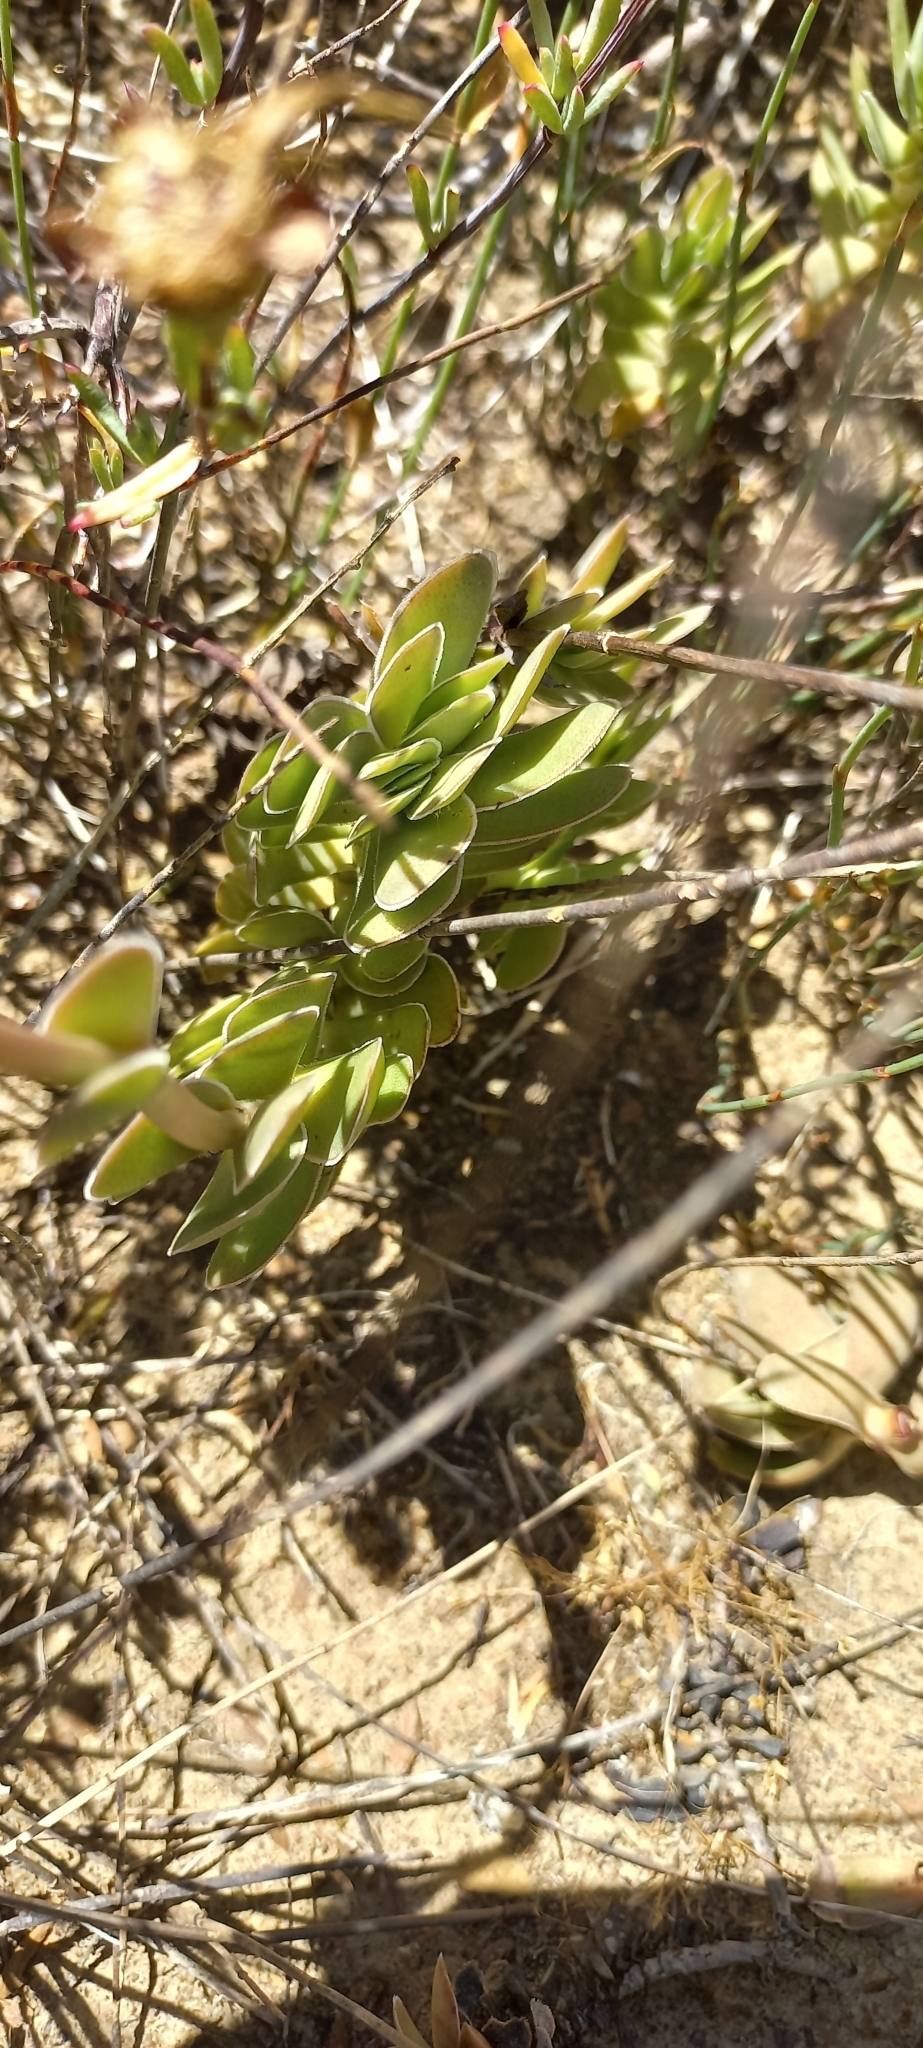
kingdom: Plantae
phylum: Tracheophyta
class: Magnoliopsida
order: Saxifragales
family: Crassulaceae
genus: Crassula
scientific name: Crassula ciliata
